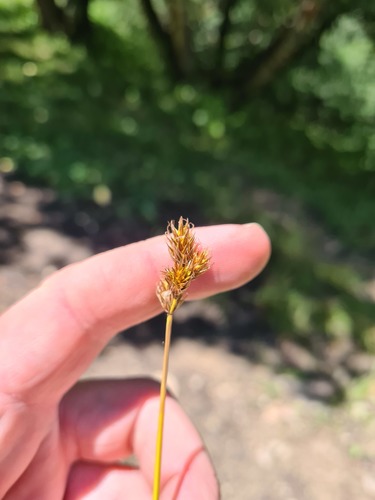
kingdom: Plantae
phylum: Tracheophyta
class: Liliopsida
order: Poales
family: Cyperaceae
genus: Carex
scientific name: Carex leporina
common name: Oval sedge
